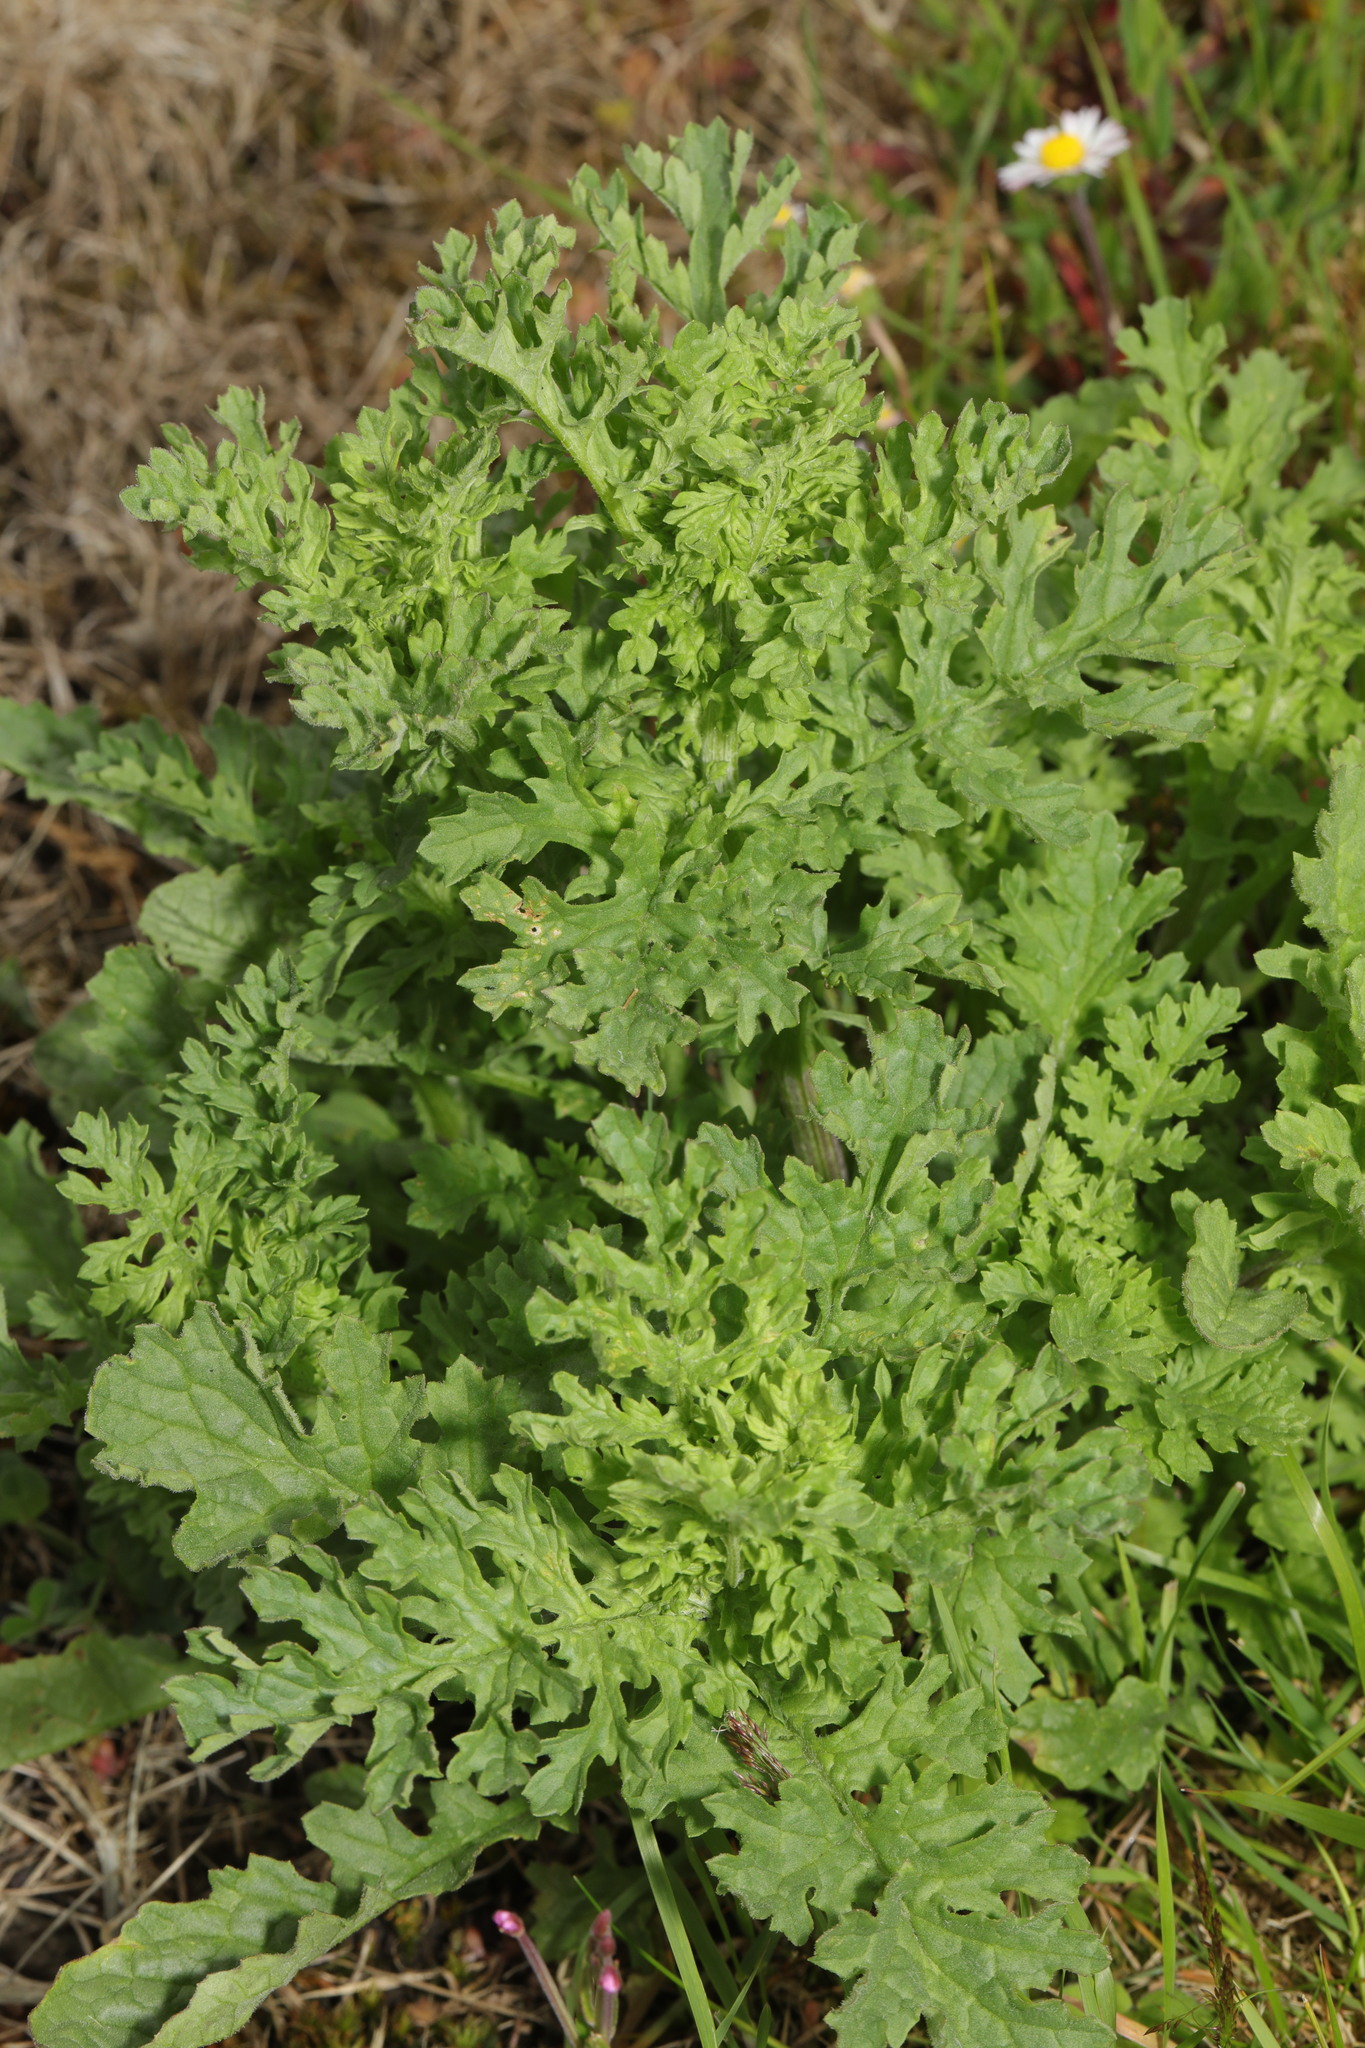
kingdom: Plantae
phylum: Tracheophyta
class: Magnoliopsida
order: Asterales
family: Asteraceae
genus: Jacobaea
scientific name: Jacobaea vulgaris
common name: Stinking willie
